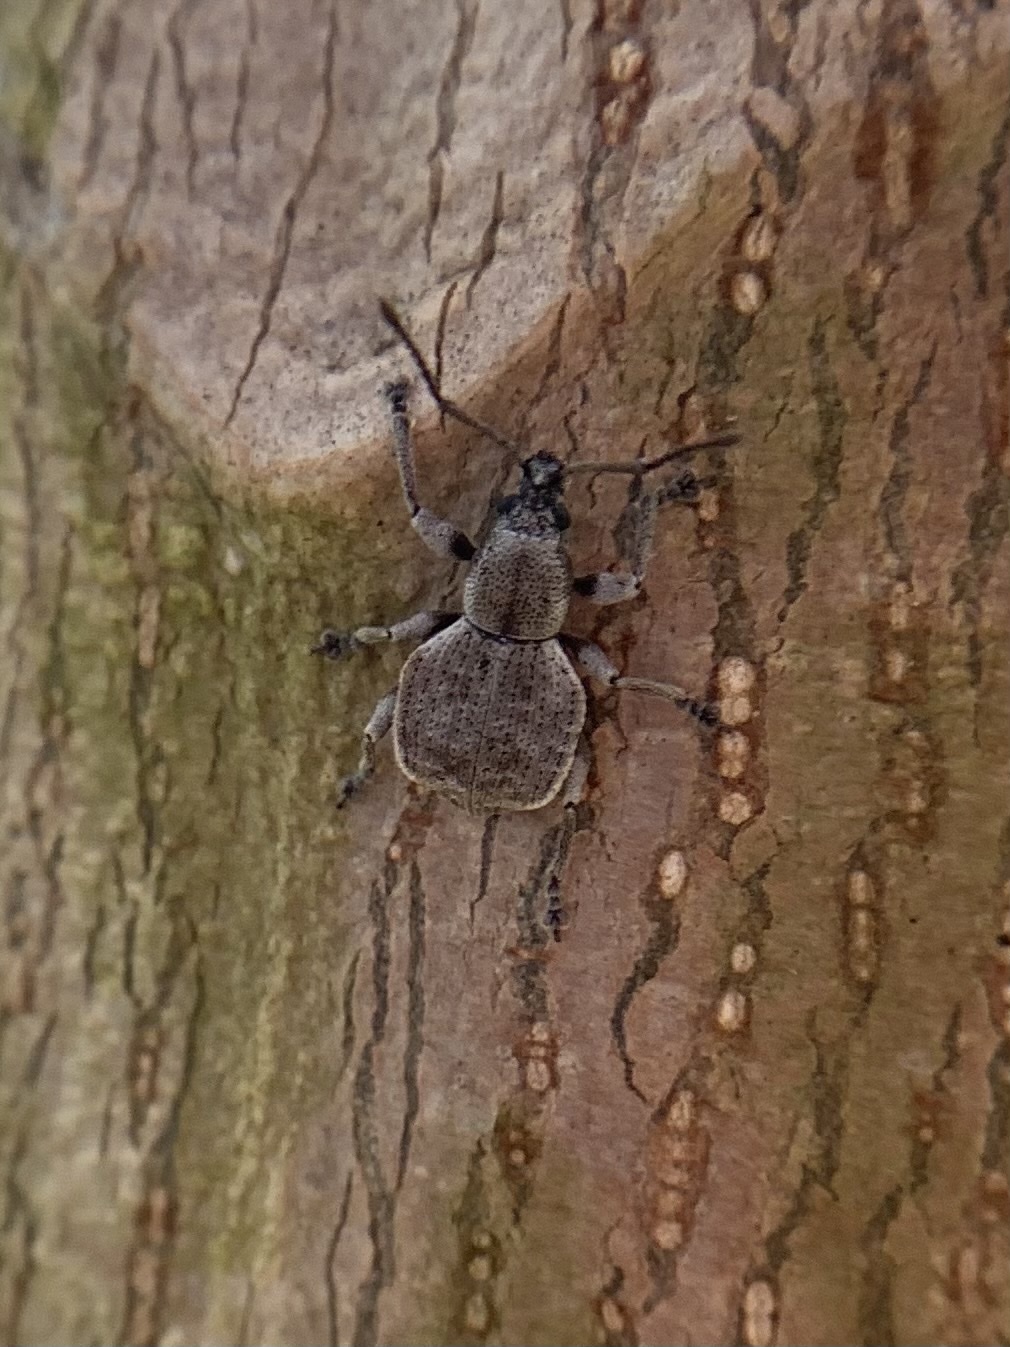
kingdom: Animalia
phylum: Arthropoda
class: Insecta
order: Coleoptera
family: Curculionidae
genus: Platysimus
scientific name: Platysimus septentrionalis
